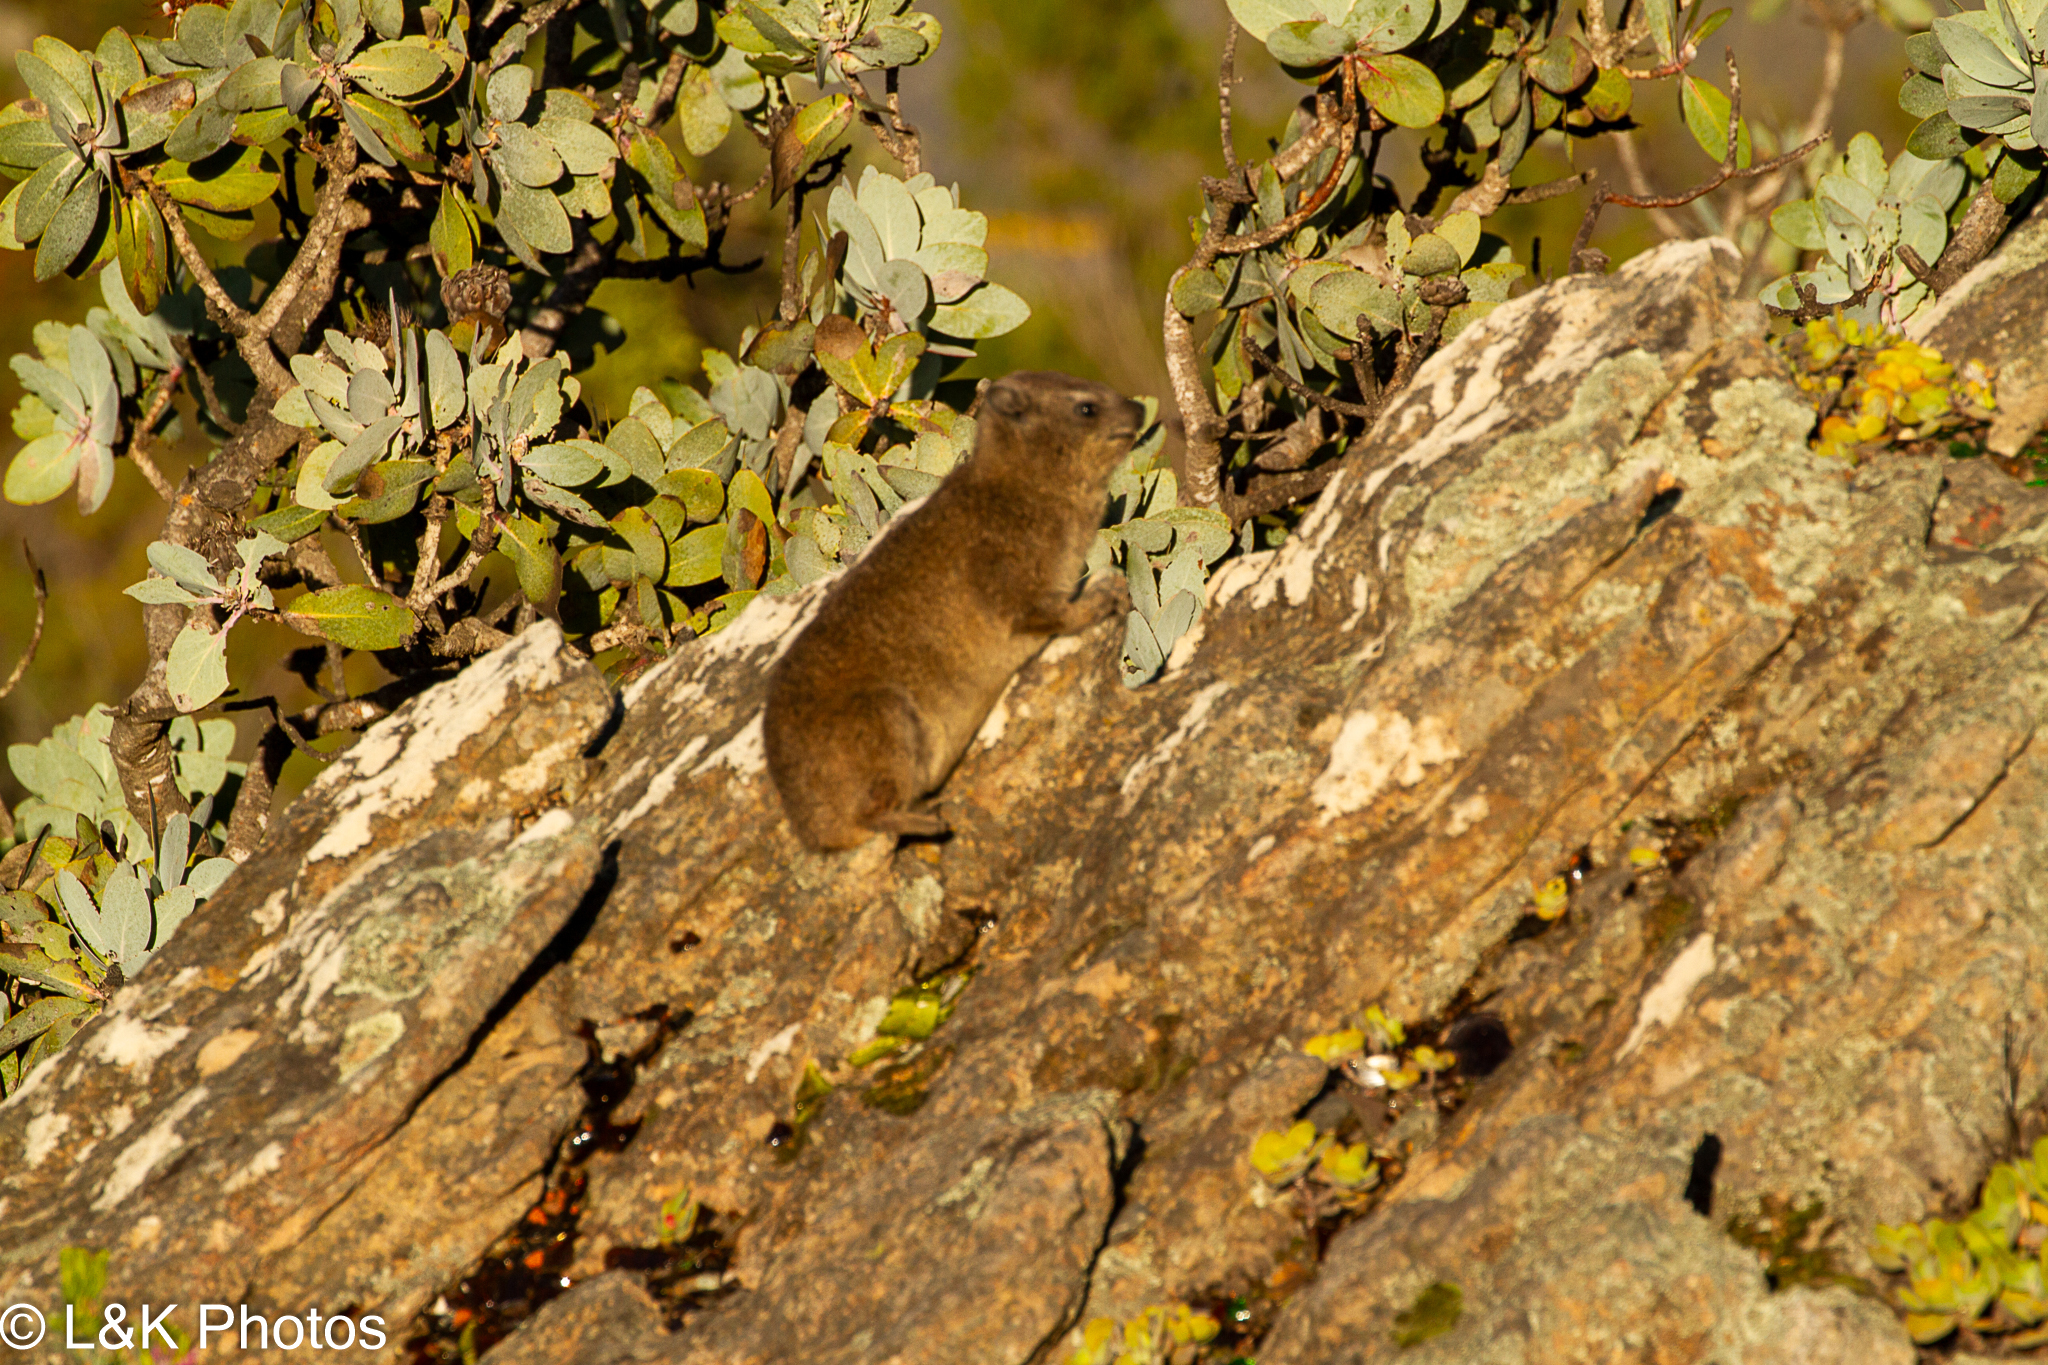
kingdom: Animalia
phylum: Chordata
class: Mammalia
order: Hyracoidea
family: Procaviidae
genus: Procavia
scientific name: Procavia capensis
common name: Rock hyrax
